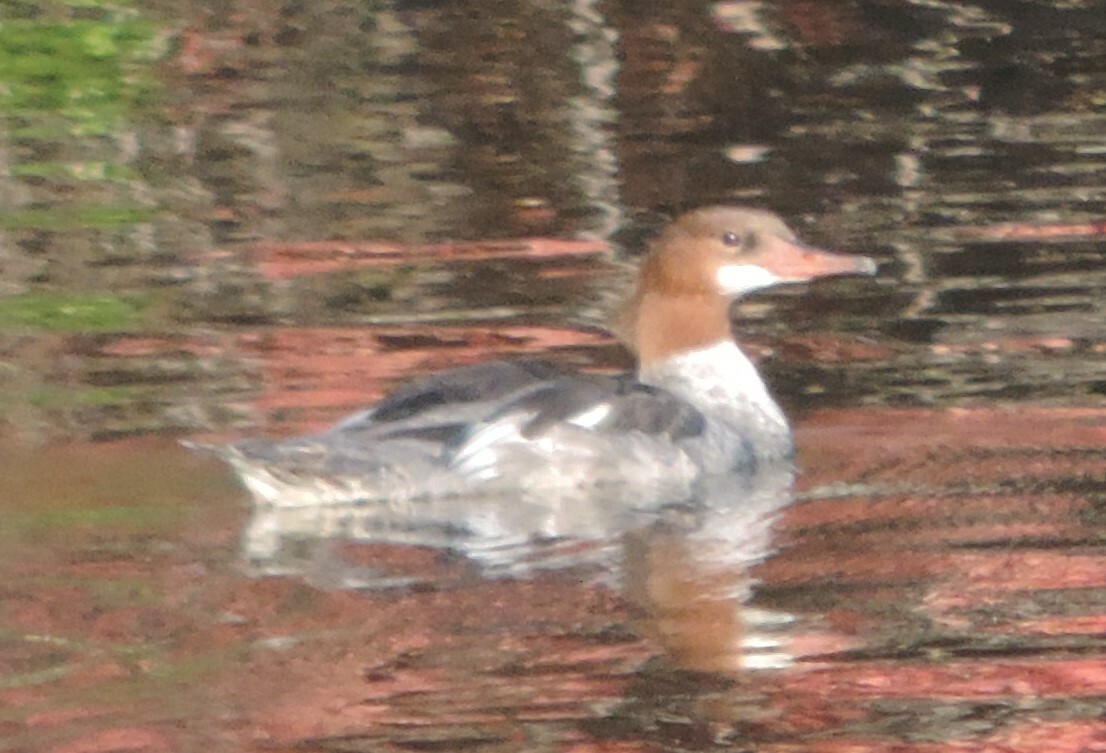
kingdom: Animalia
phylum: Chordata
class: Aves
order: Anseriformes
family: Anatidae
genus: Mergus
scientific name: Mergus merganser
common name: Common merganser
